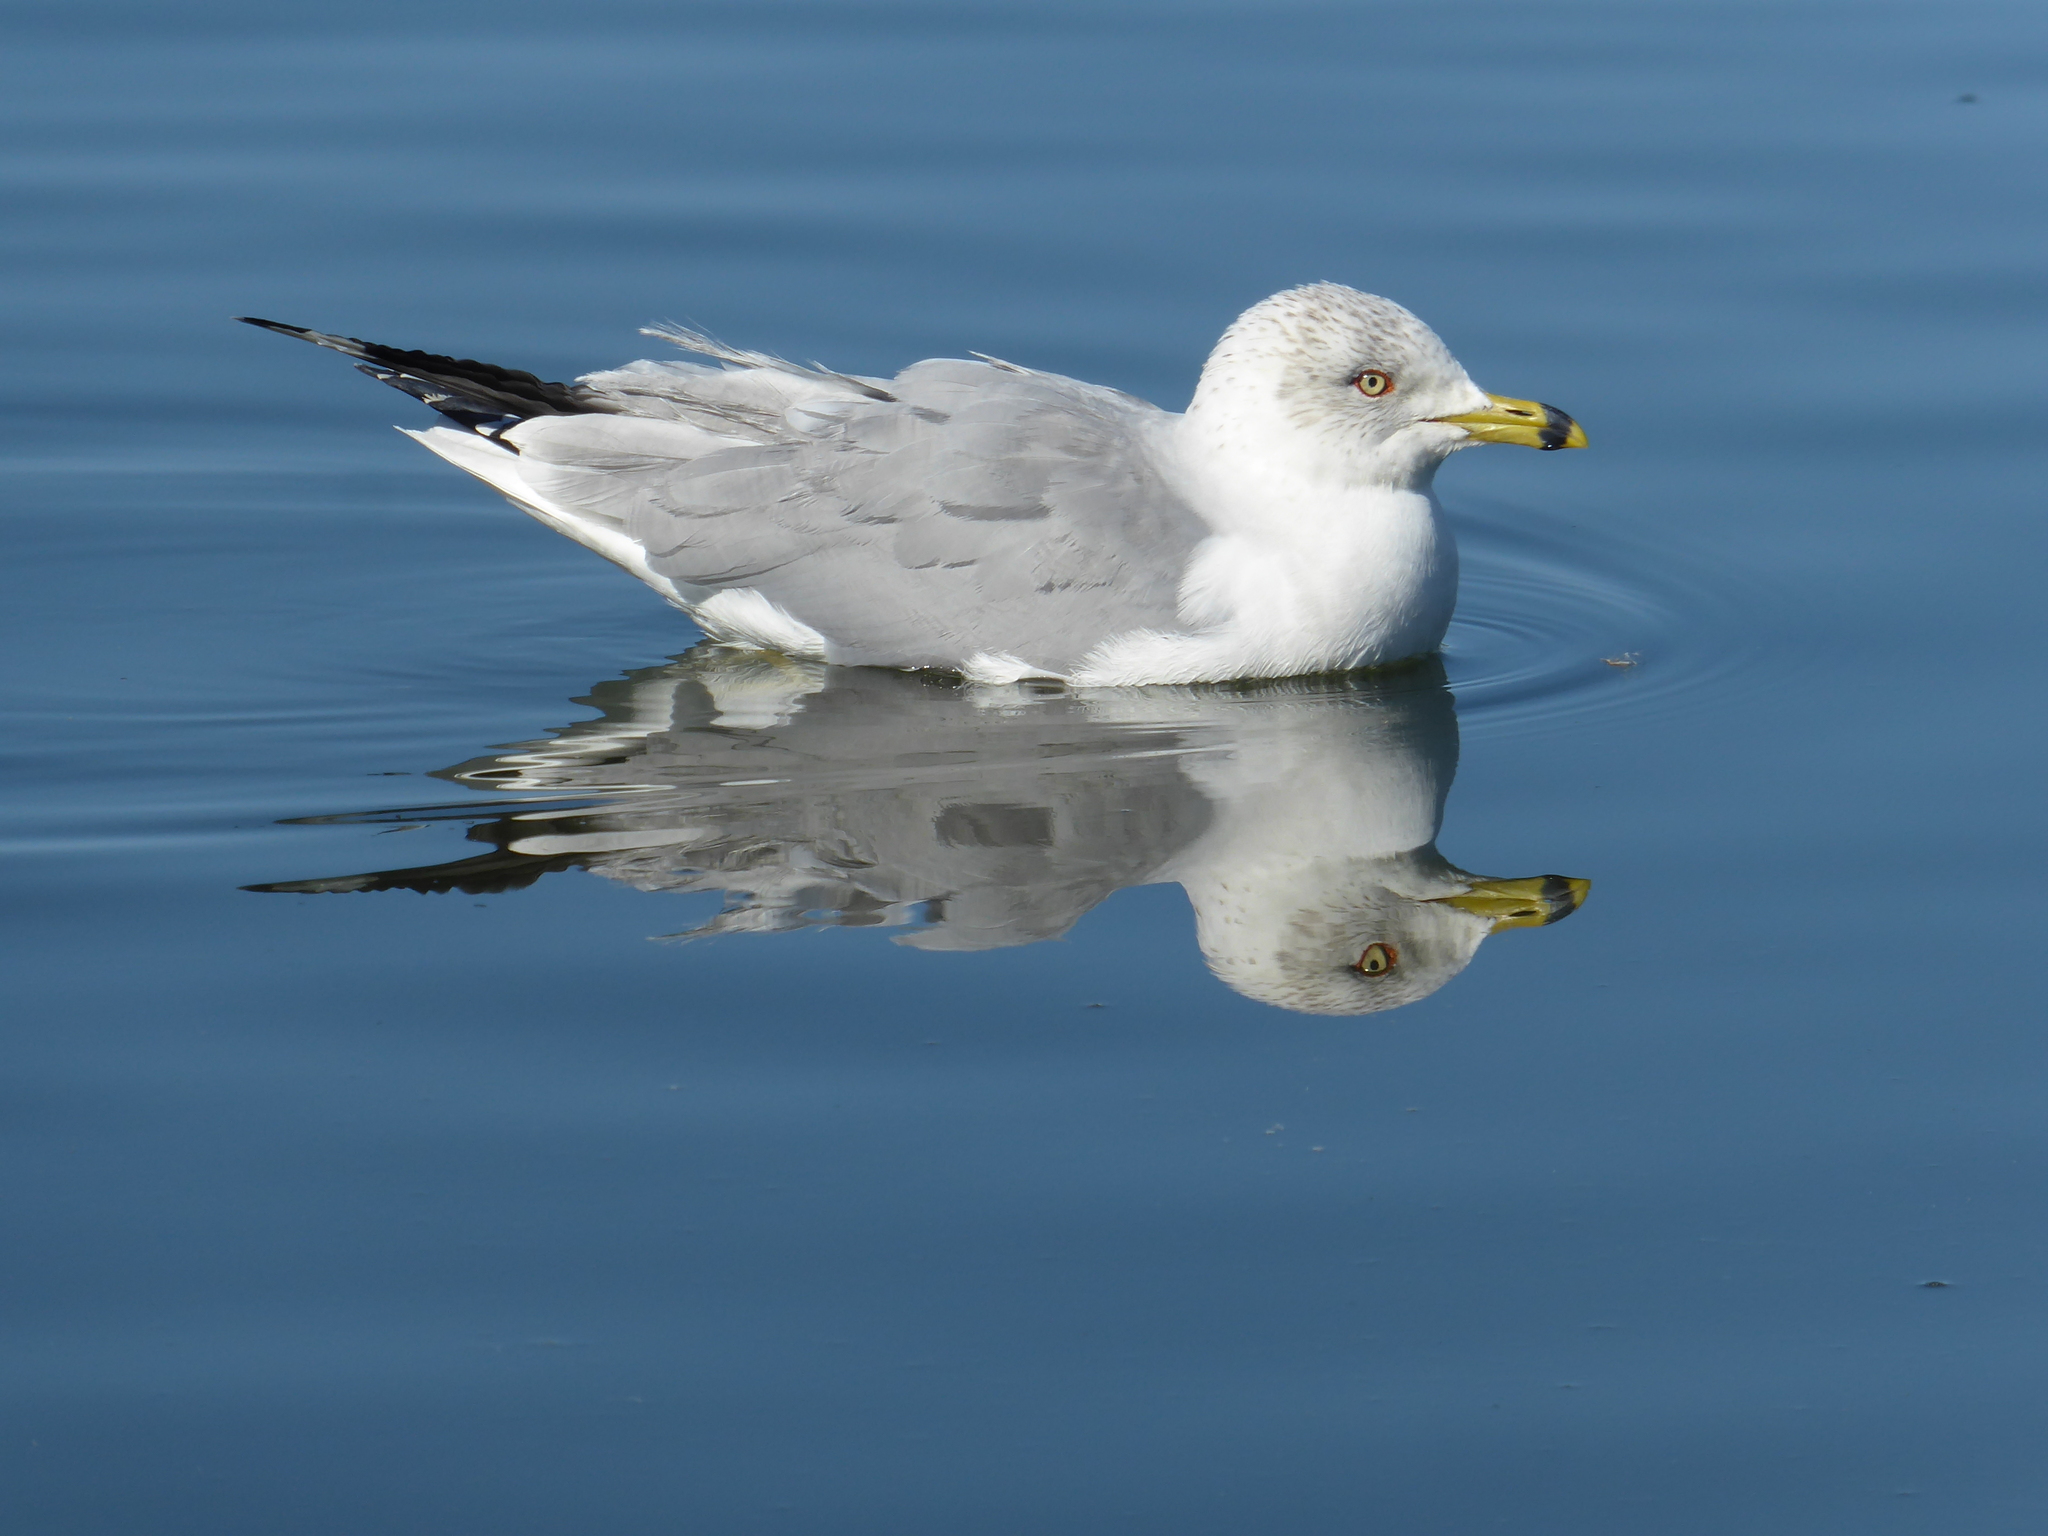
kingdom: Animalia
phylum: Chordata
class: Aves
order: Charadriiformes
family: Laridae
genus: Larus
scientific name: Larus delawarensis
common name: Ring-billed gull
